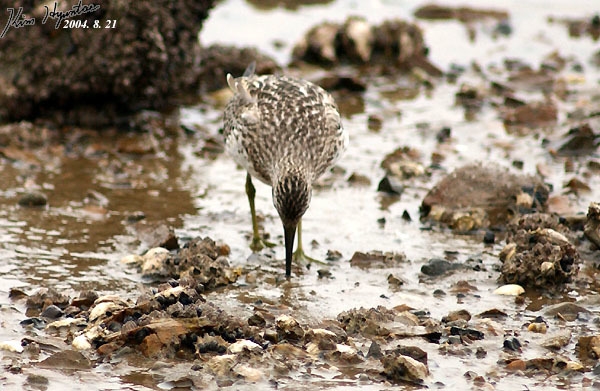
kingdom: Animalia
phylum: Chordata
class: Aves
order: Charadriiformes
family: Scolopacidae
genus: Calidris
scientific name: Calidris tenuirostris
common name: Great knot
